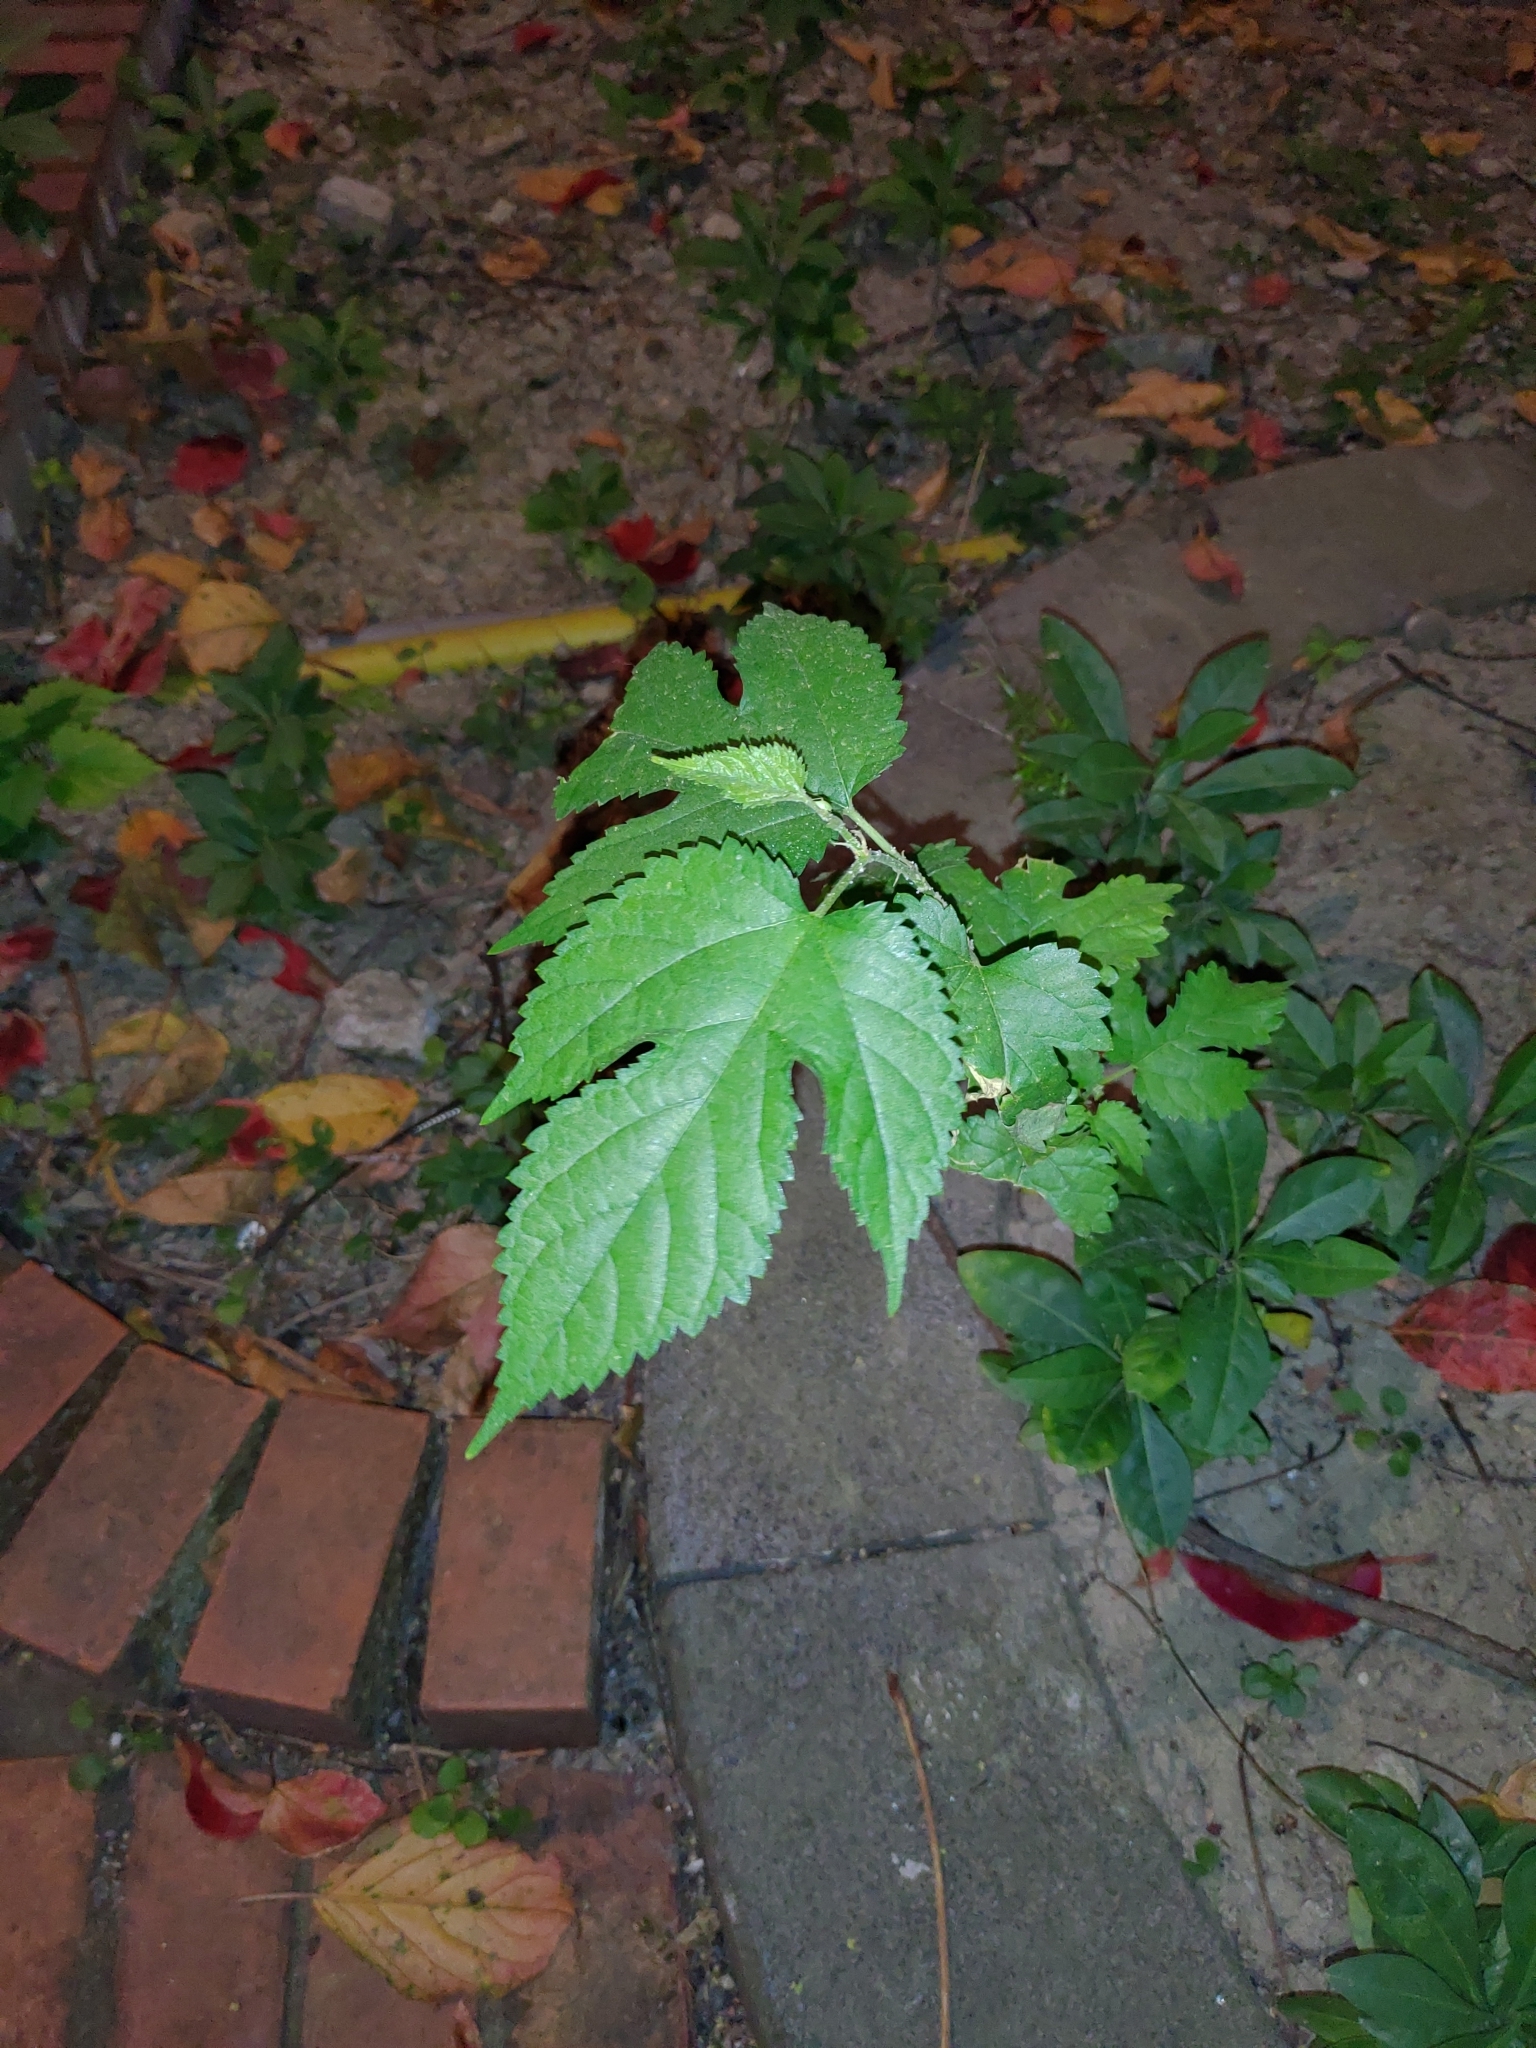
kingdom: Plantae
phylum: Tracheophyta
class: Magnoliopsida
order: Rosales
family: Moraceae
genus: Morus
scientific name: Morus indica
